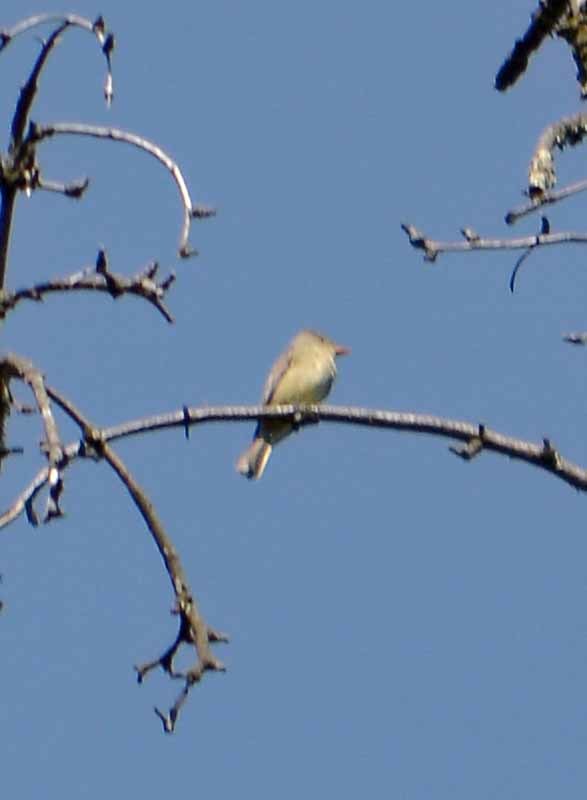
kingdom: Animalia
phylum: Chordata
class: Aves
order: Passeriformes
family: Tyrannidae
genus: Contopus
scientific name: Contopus pertinax
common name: Greater pewee
